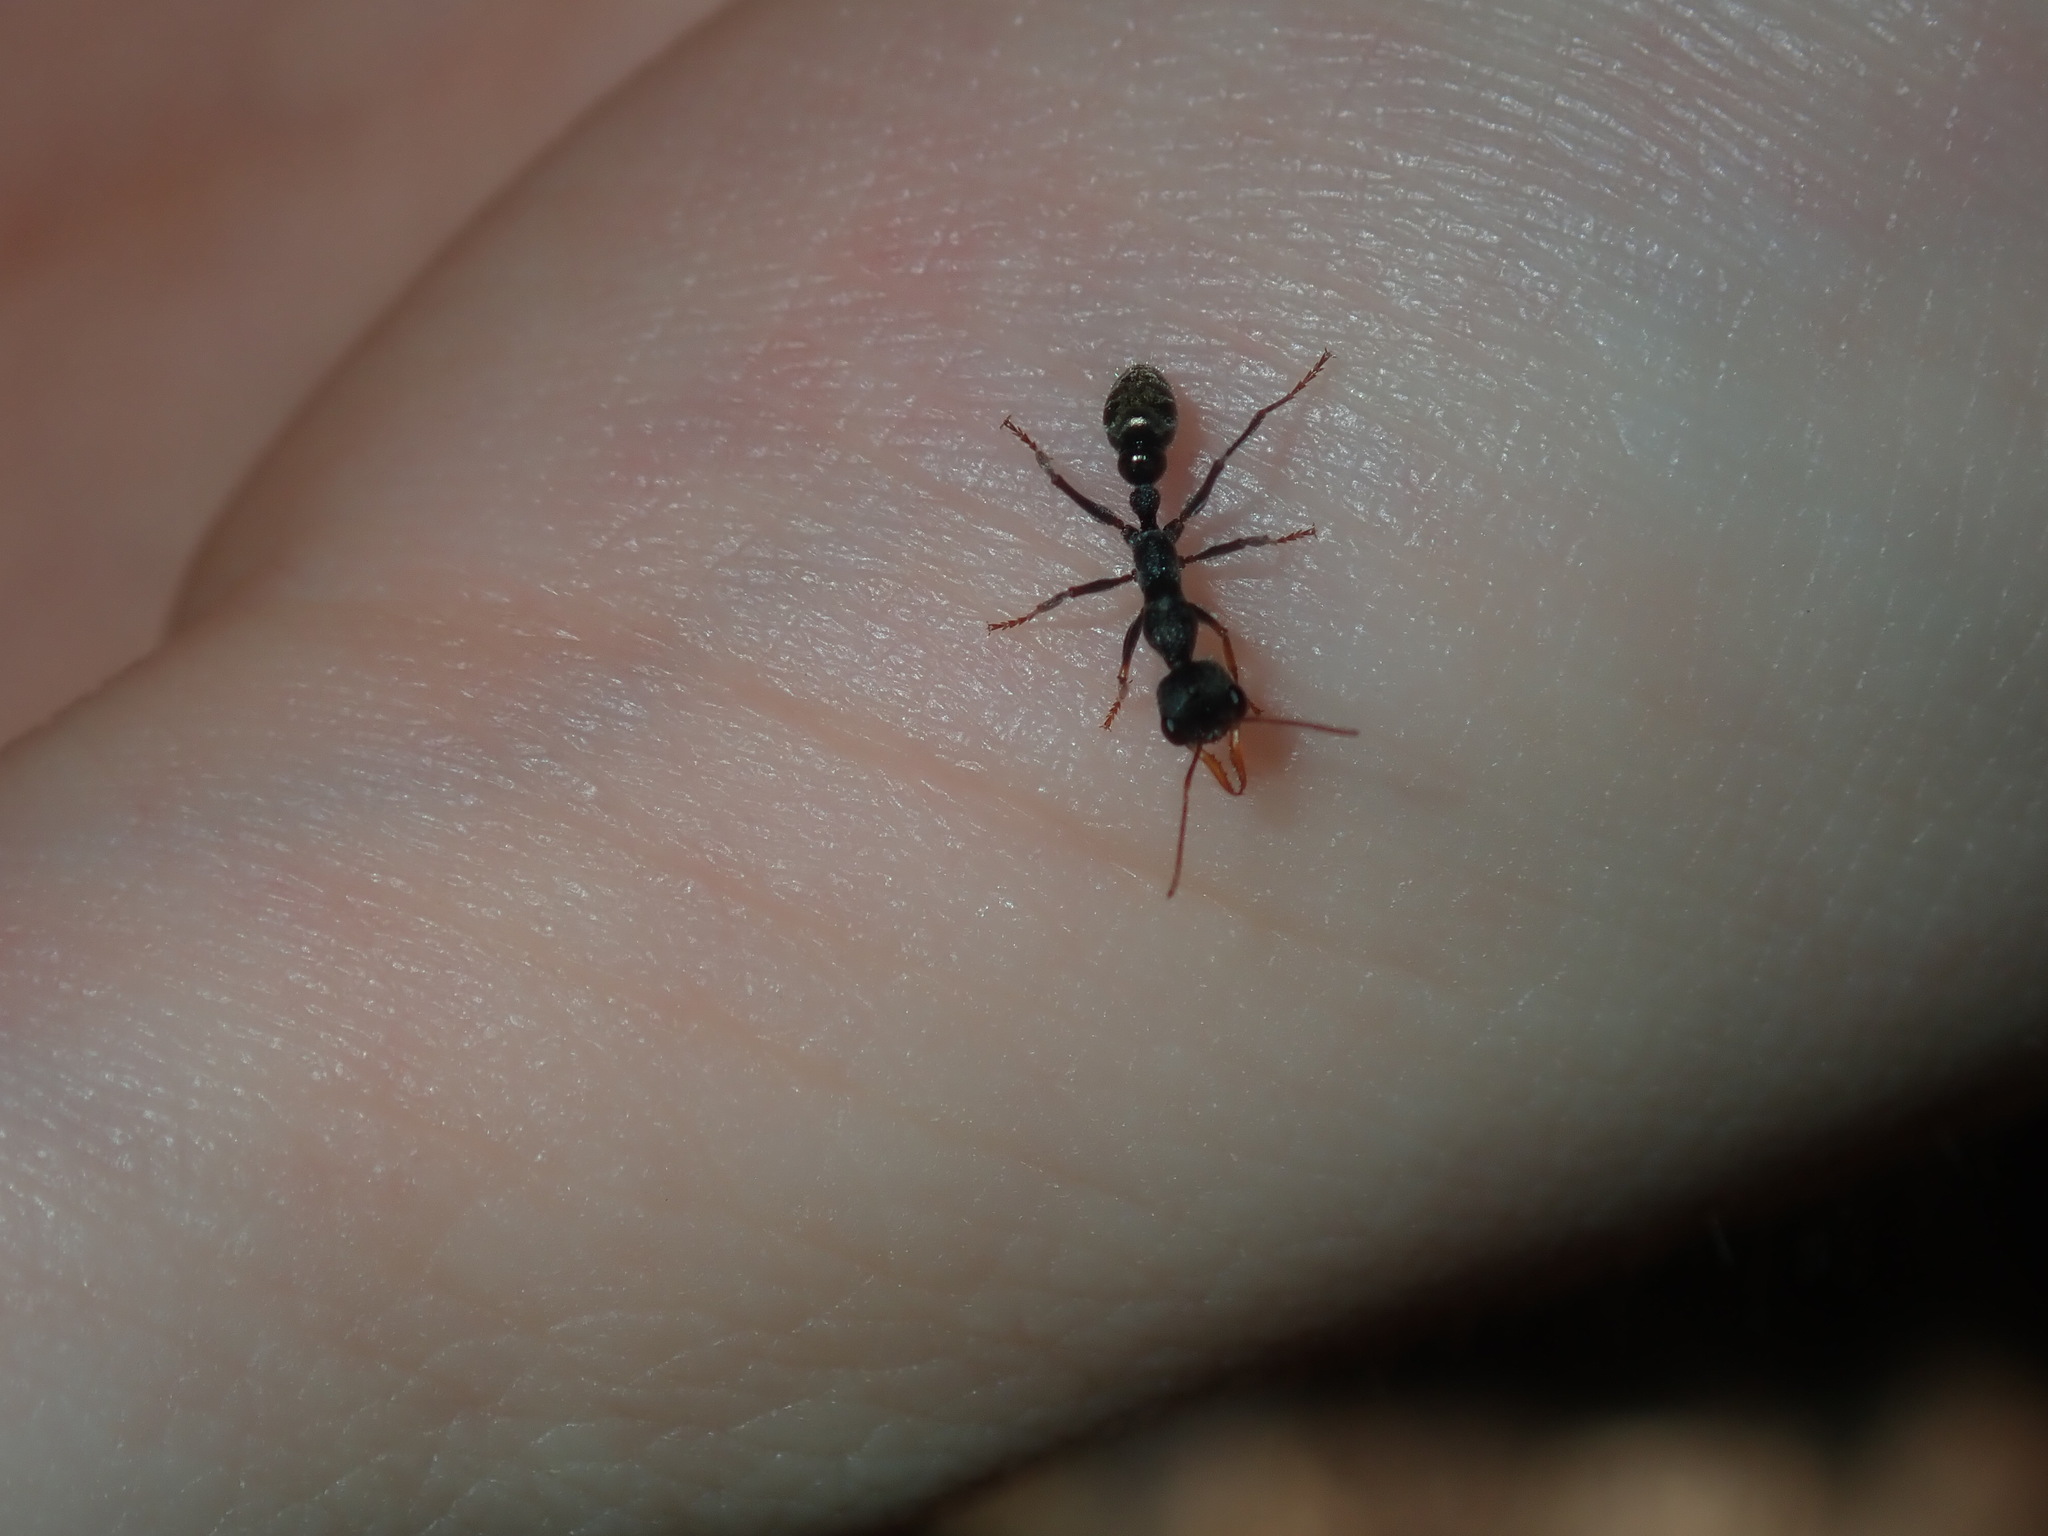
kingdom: Animalia
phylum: Arthropoda
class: Insecta
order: Hymenoptera
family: Formicidae
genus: Myrmecia
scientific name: Myrmecia urens
